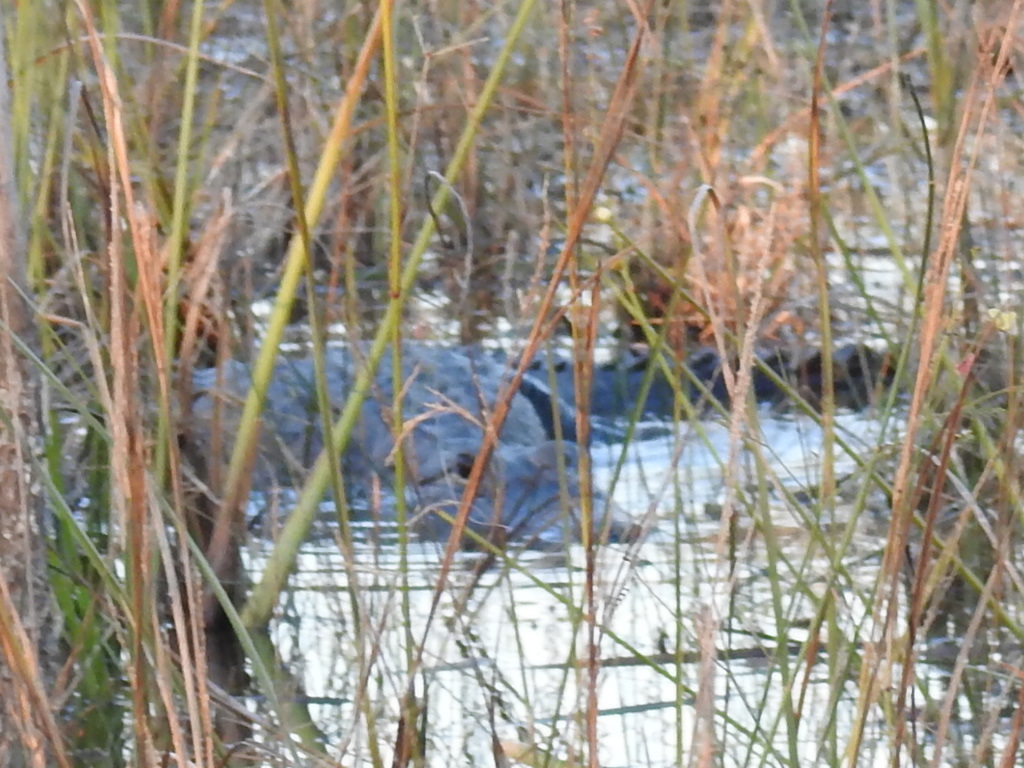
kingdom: Animalia
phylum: Chordata
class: Crocodylia
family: Alligatoridae
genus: Alligator
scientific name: Alligator mississippiensis
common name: American alligator
